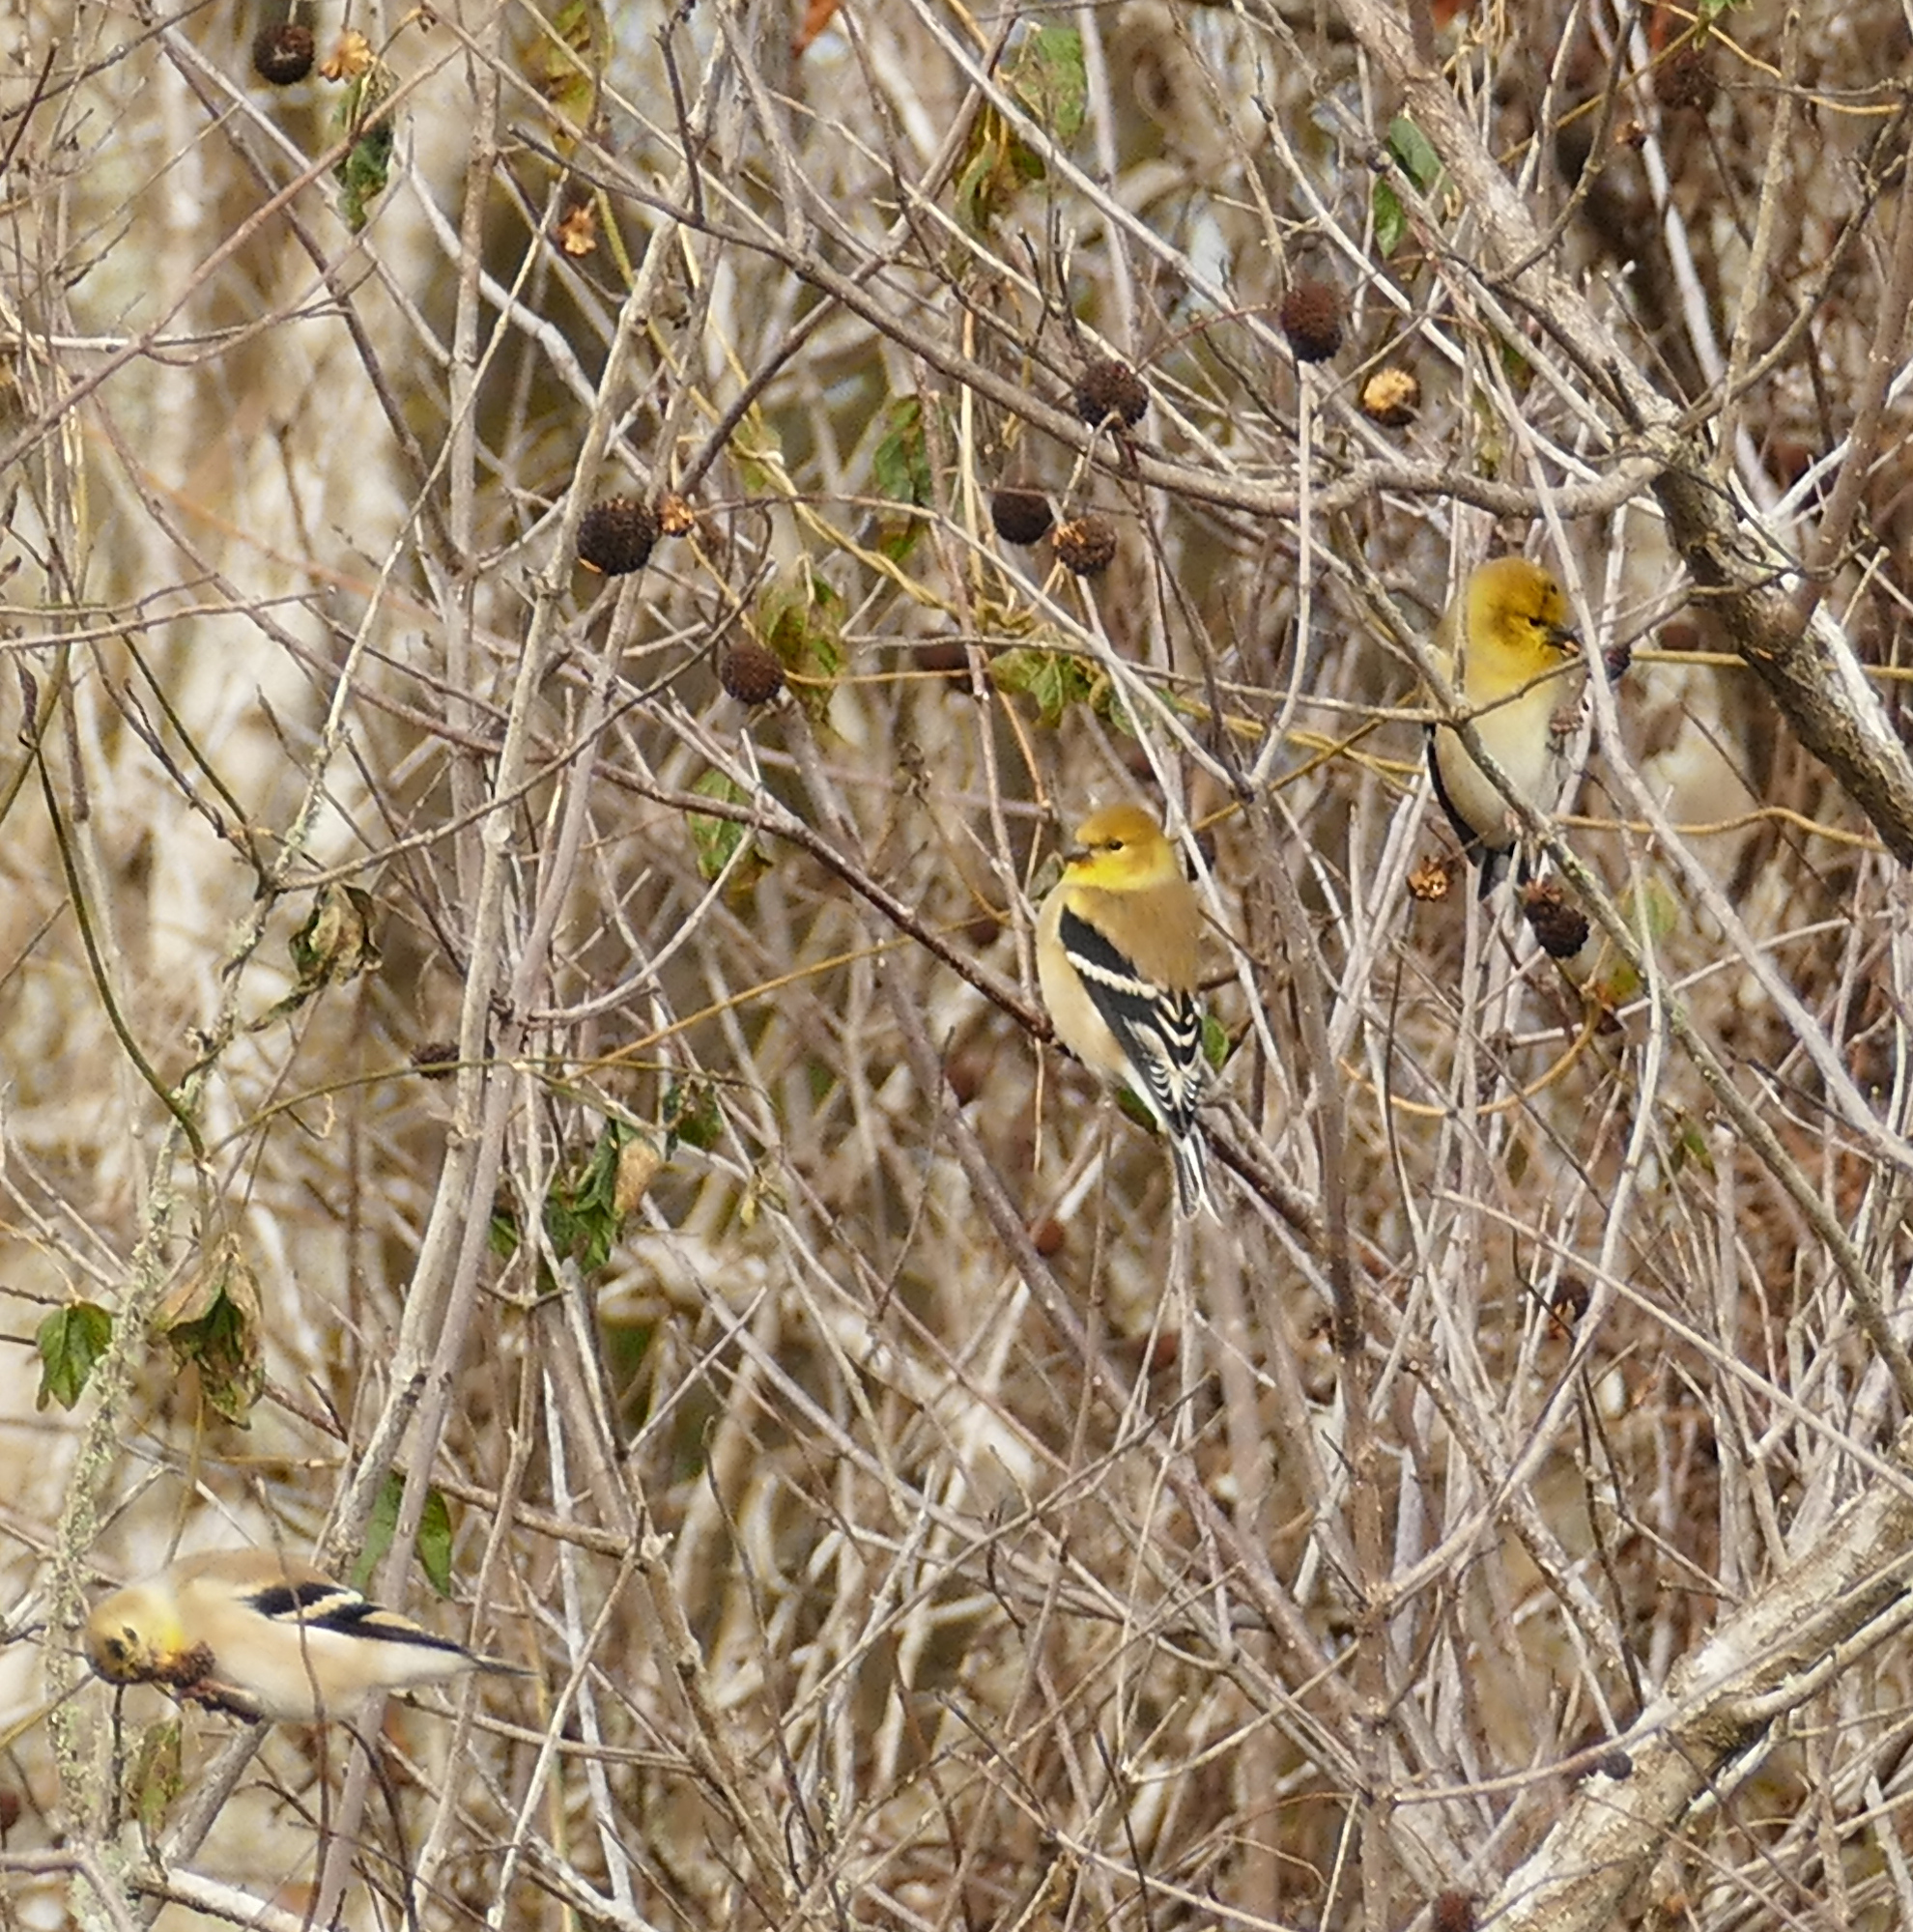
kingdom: Animalia
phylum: Chordata
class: Aves
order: Passeriformes
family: Fringillidae
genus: Spinus
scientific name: Spinus tristis
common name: American goldfinch
